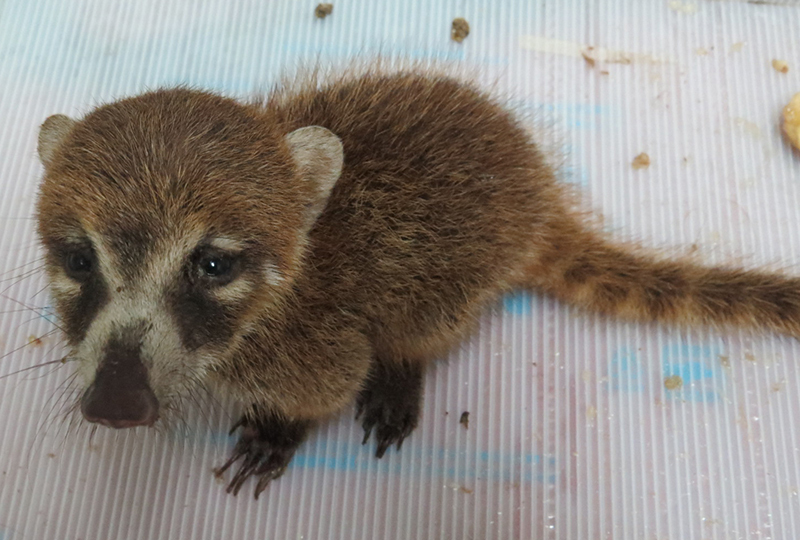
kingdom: Animalia
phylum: Chordata
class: Mammalia
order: Carnivora
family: Procyonidae
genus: Nasua
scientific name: Nasua narica
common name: White-nosed coati
